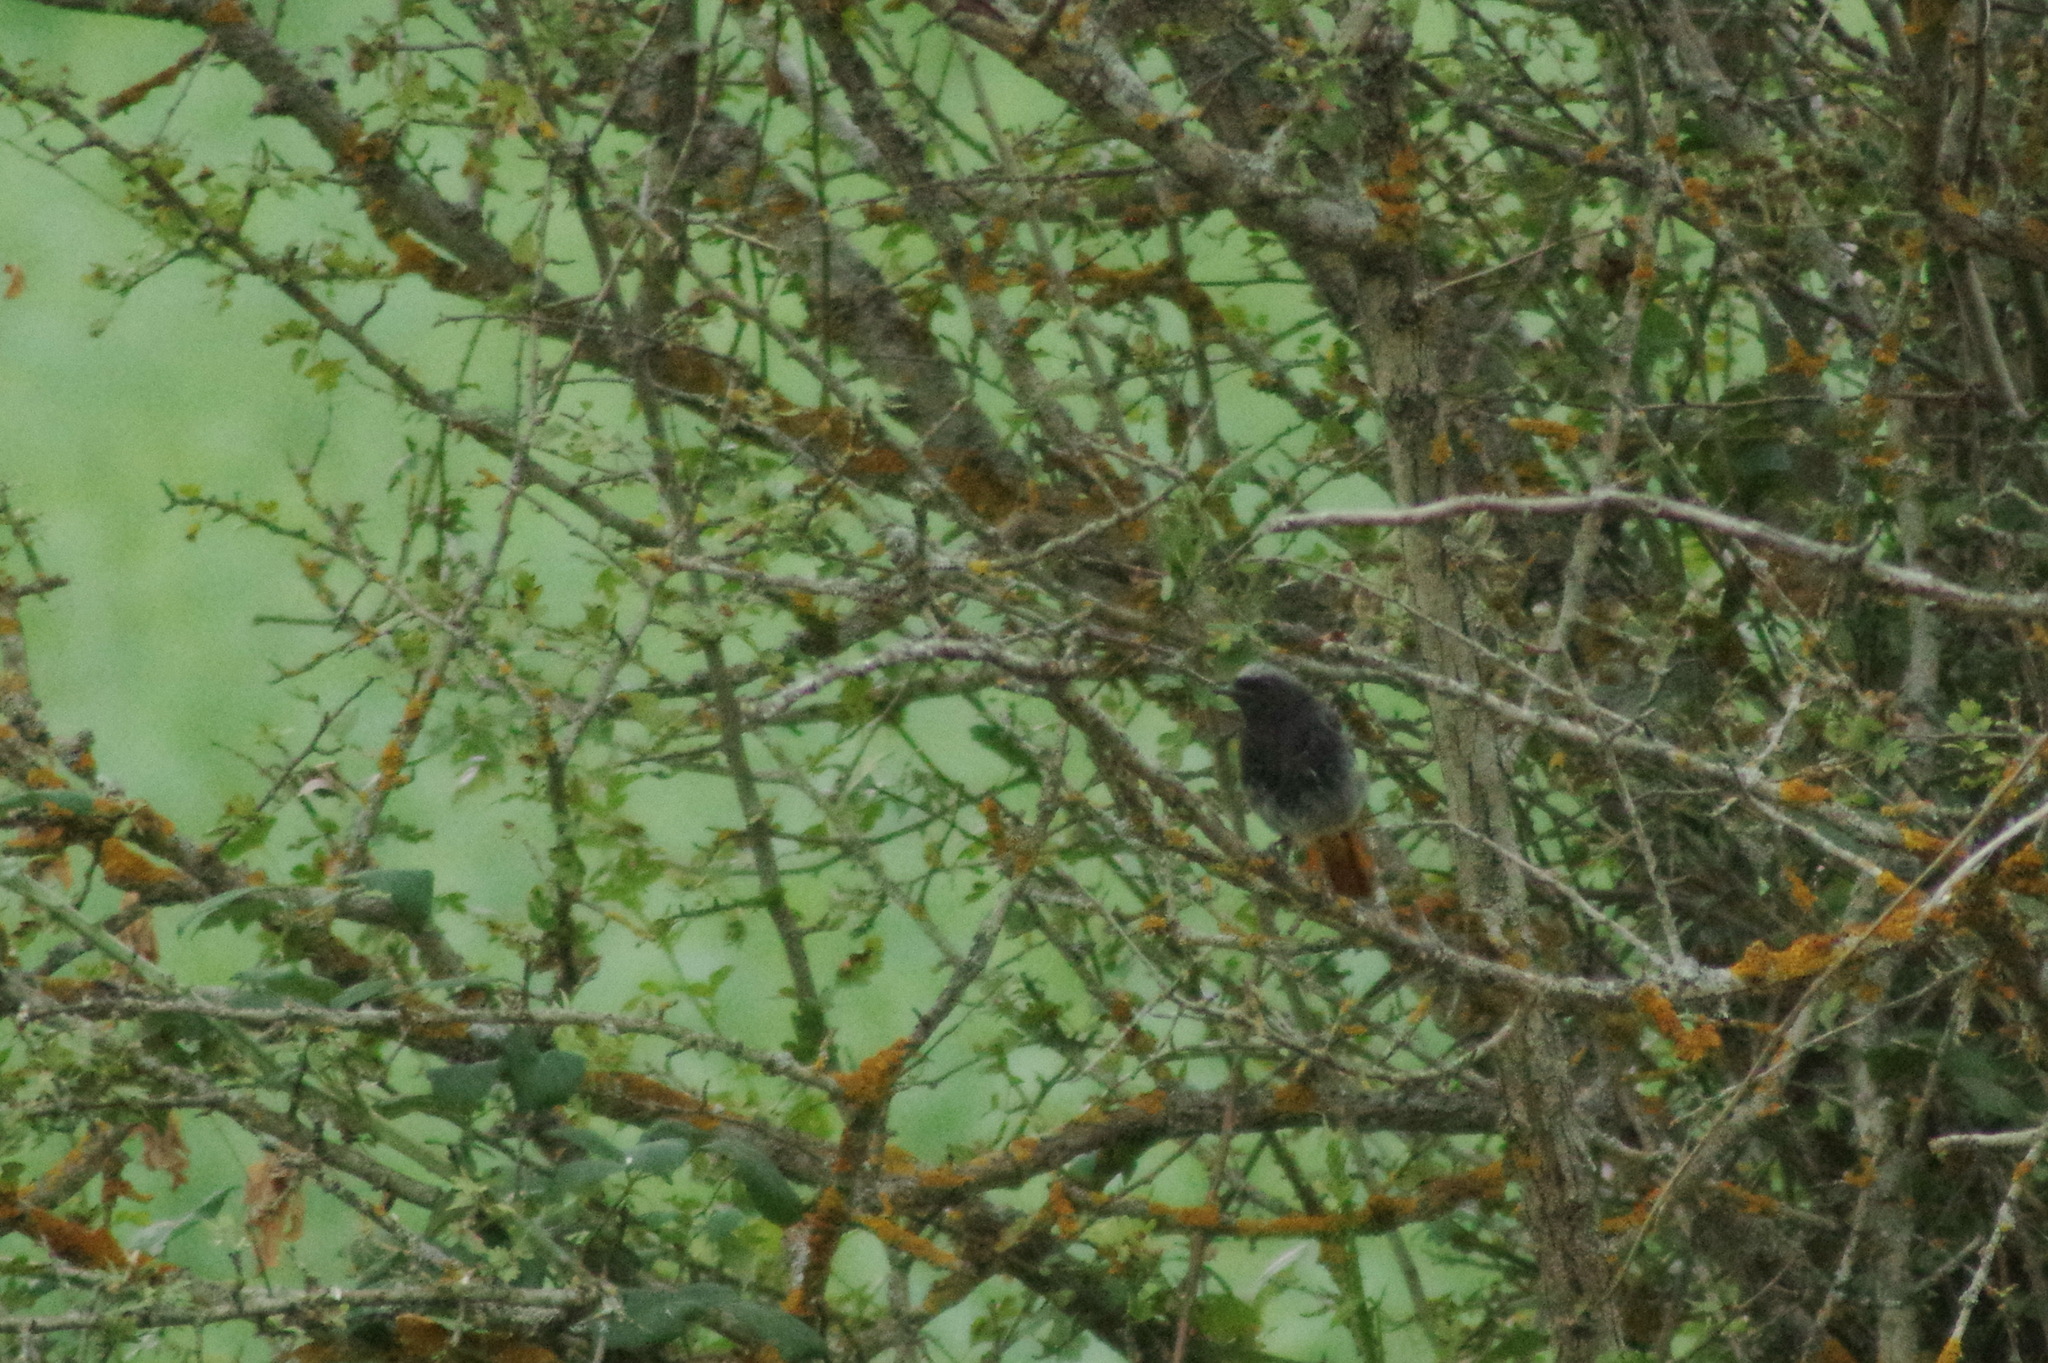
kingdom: Animalia
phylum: Chordata
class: Aves
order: Passeriformes
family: Muscicapidae
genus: Phoenicurus
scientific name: Phoenicurus ochruros
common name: Black redstart
